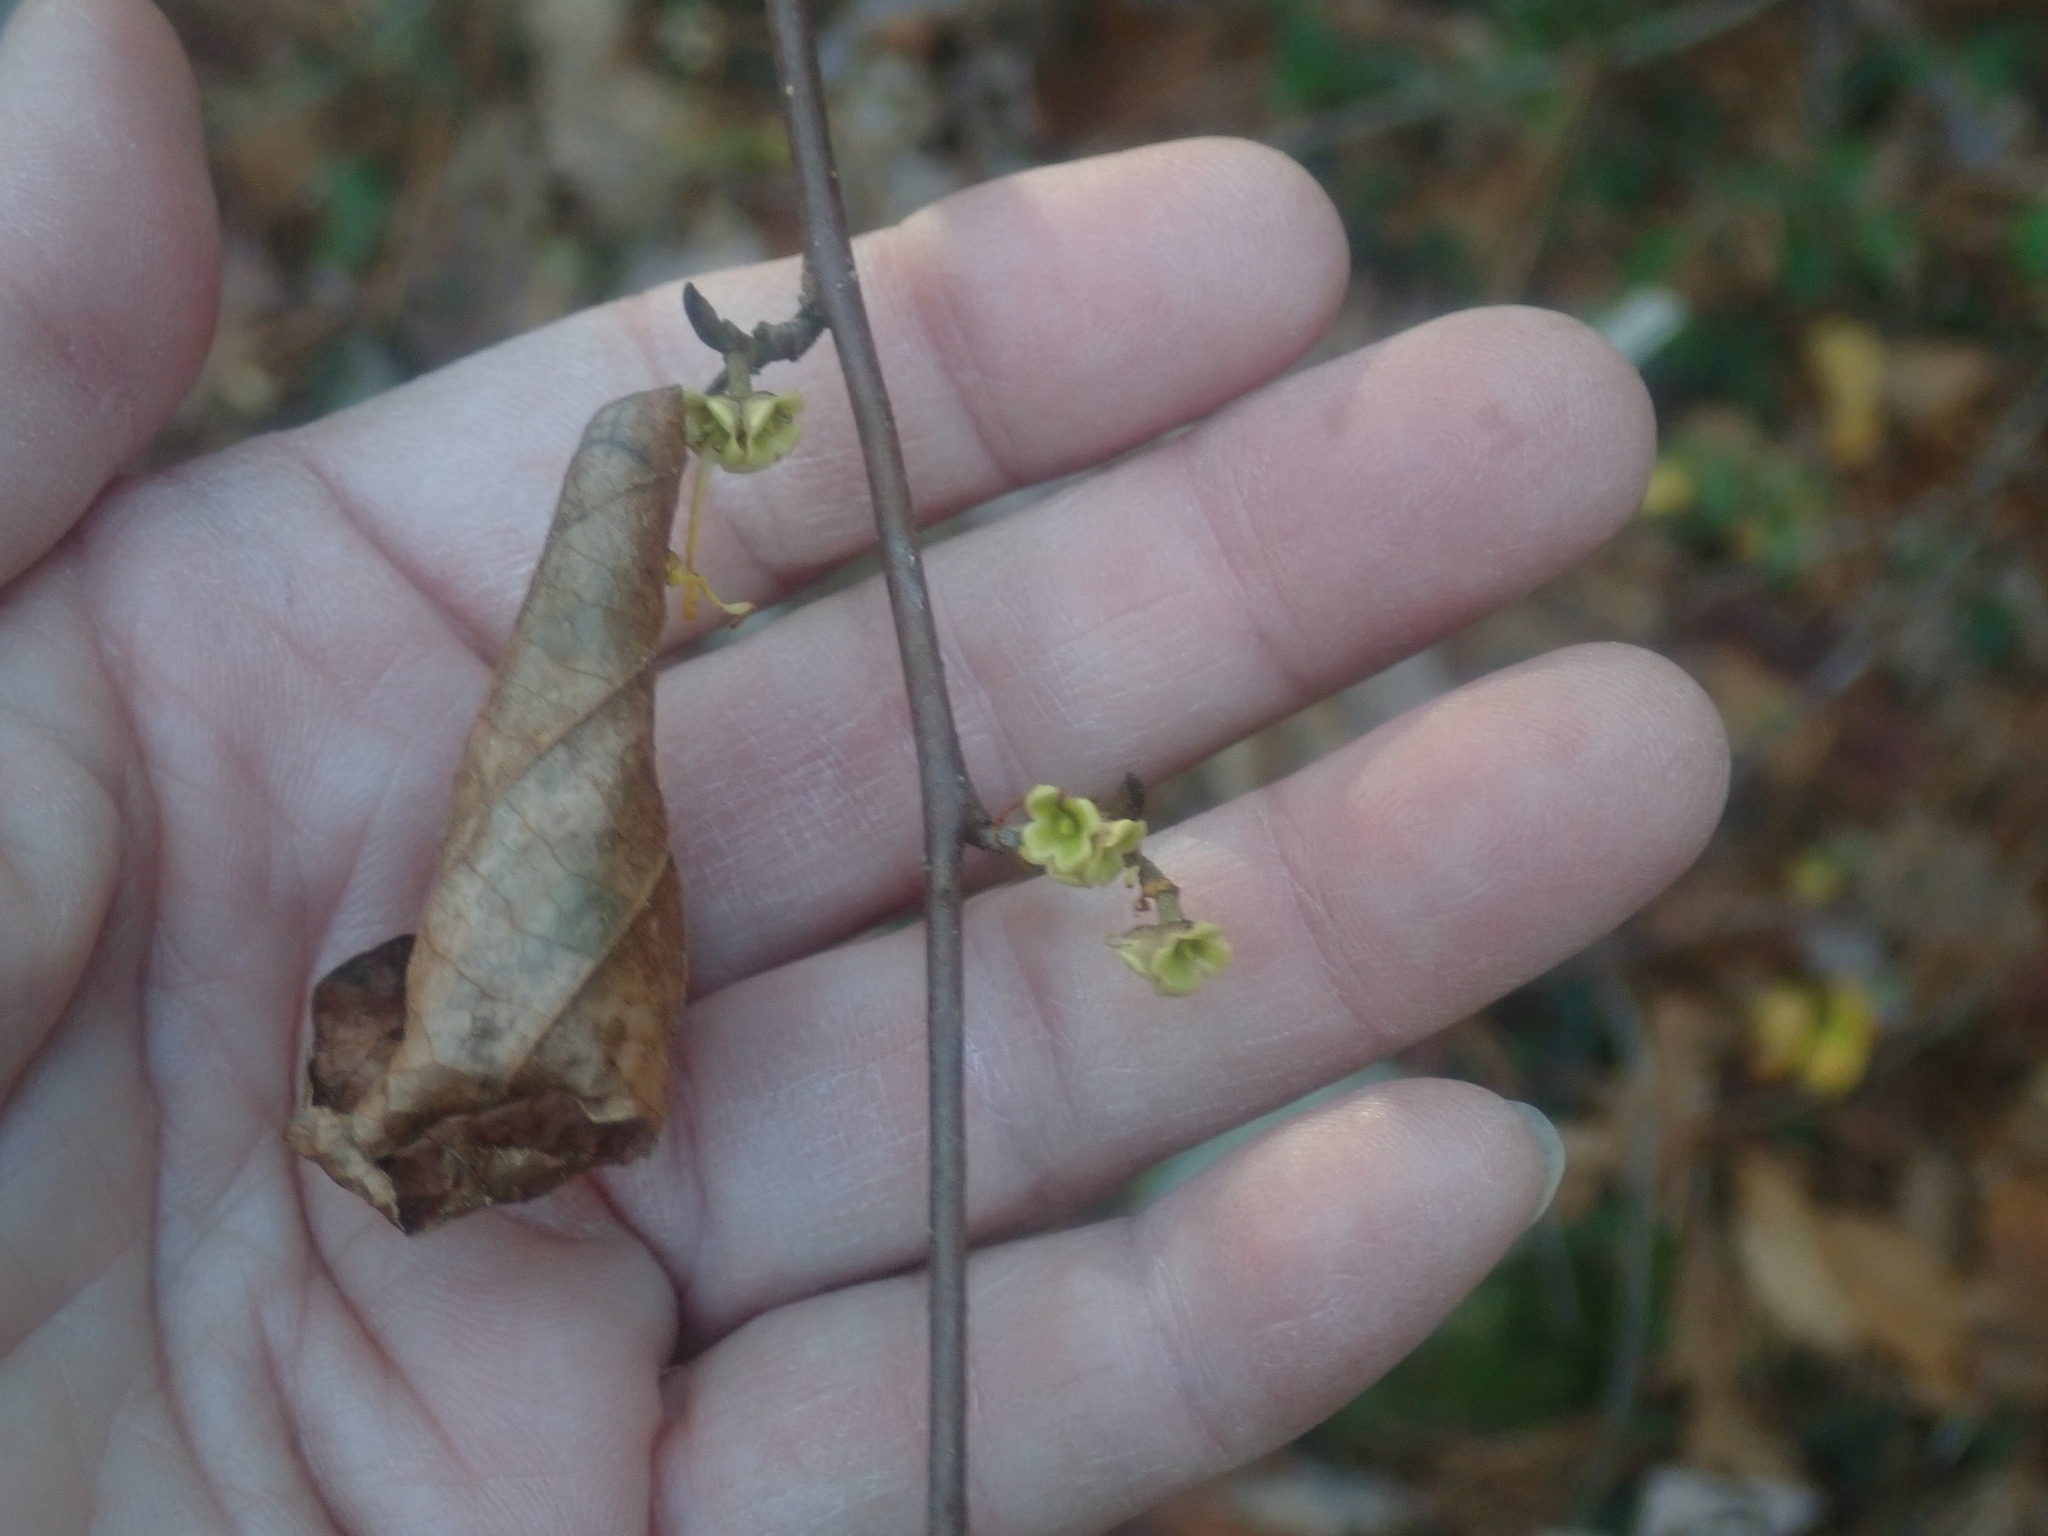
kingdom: Plantae
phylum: Tracheophyta
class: Magnoliopsida
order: Saxifragales
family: Hamamelidaceae
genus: Hamamelis
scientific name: Hamamelis virginiana
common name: Witch-hazel
